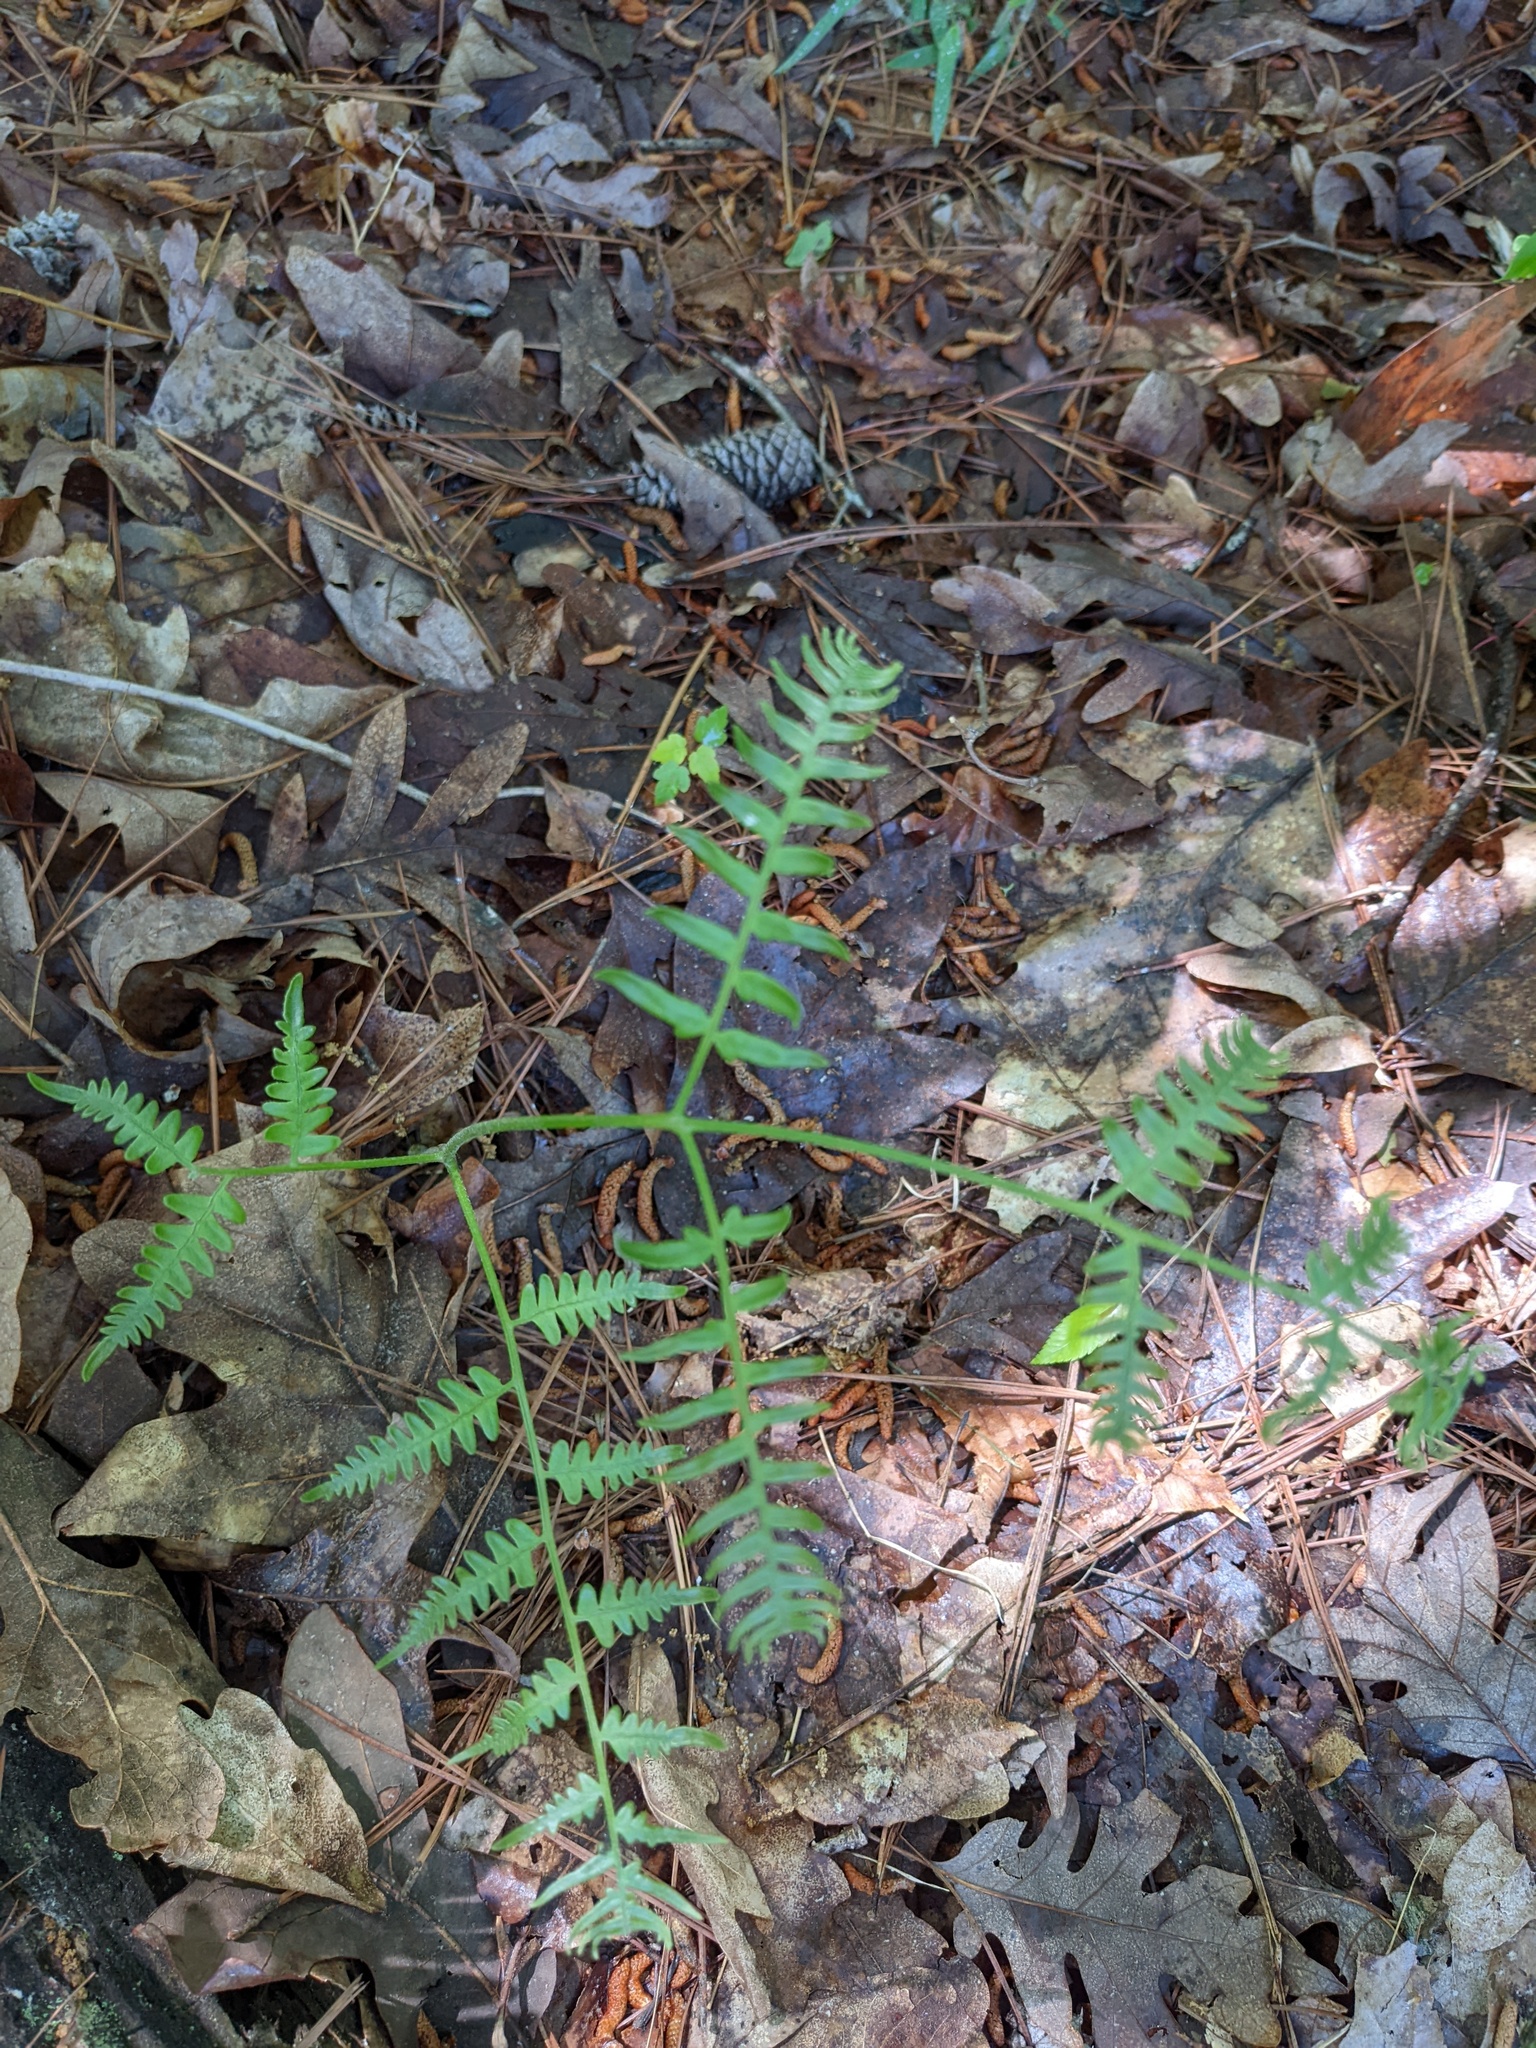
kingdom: Plantae
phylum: Tracheophyta
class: Polypodiopsida
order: Polypodiales
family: Dennstaedtiaceae
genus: Pteridium
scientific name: Pteridium aquilinum
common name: Bracken
